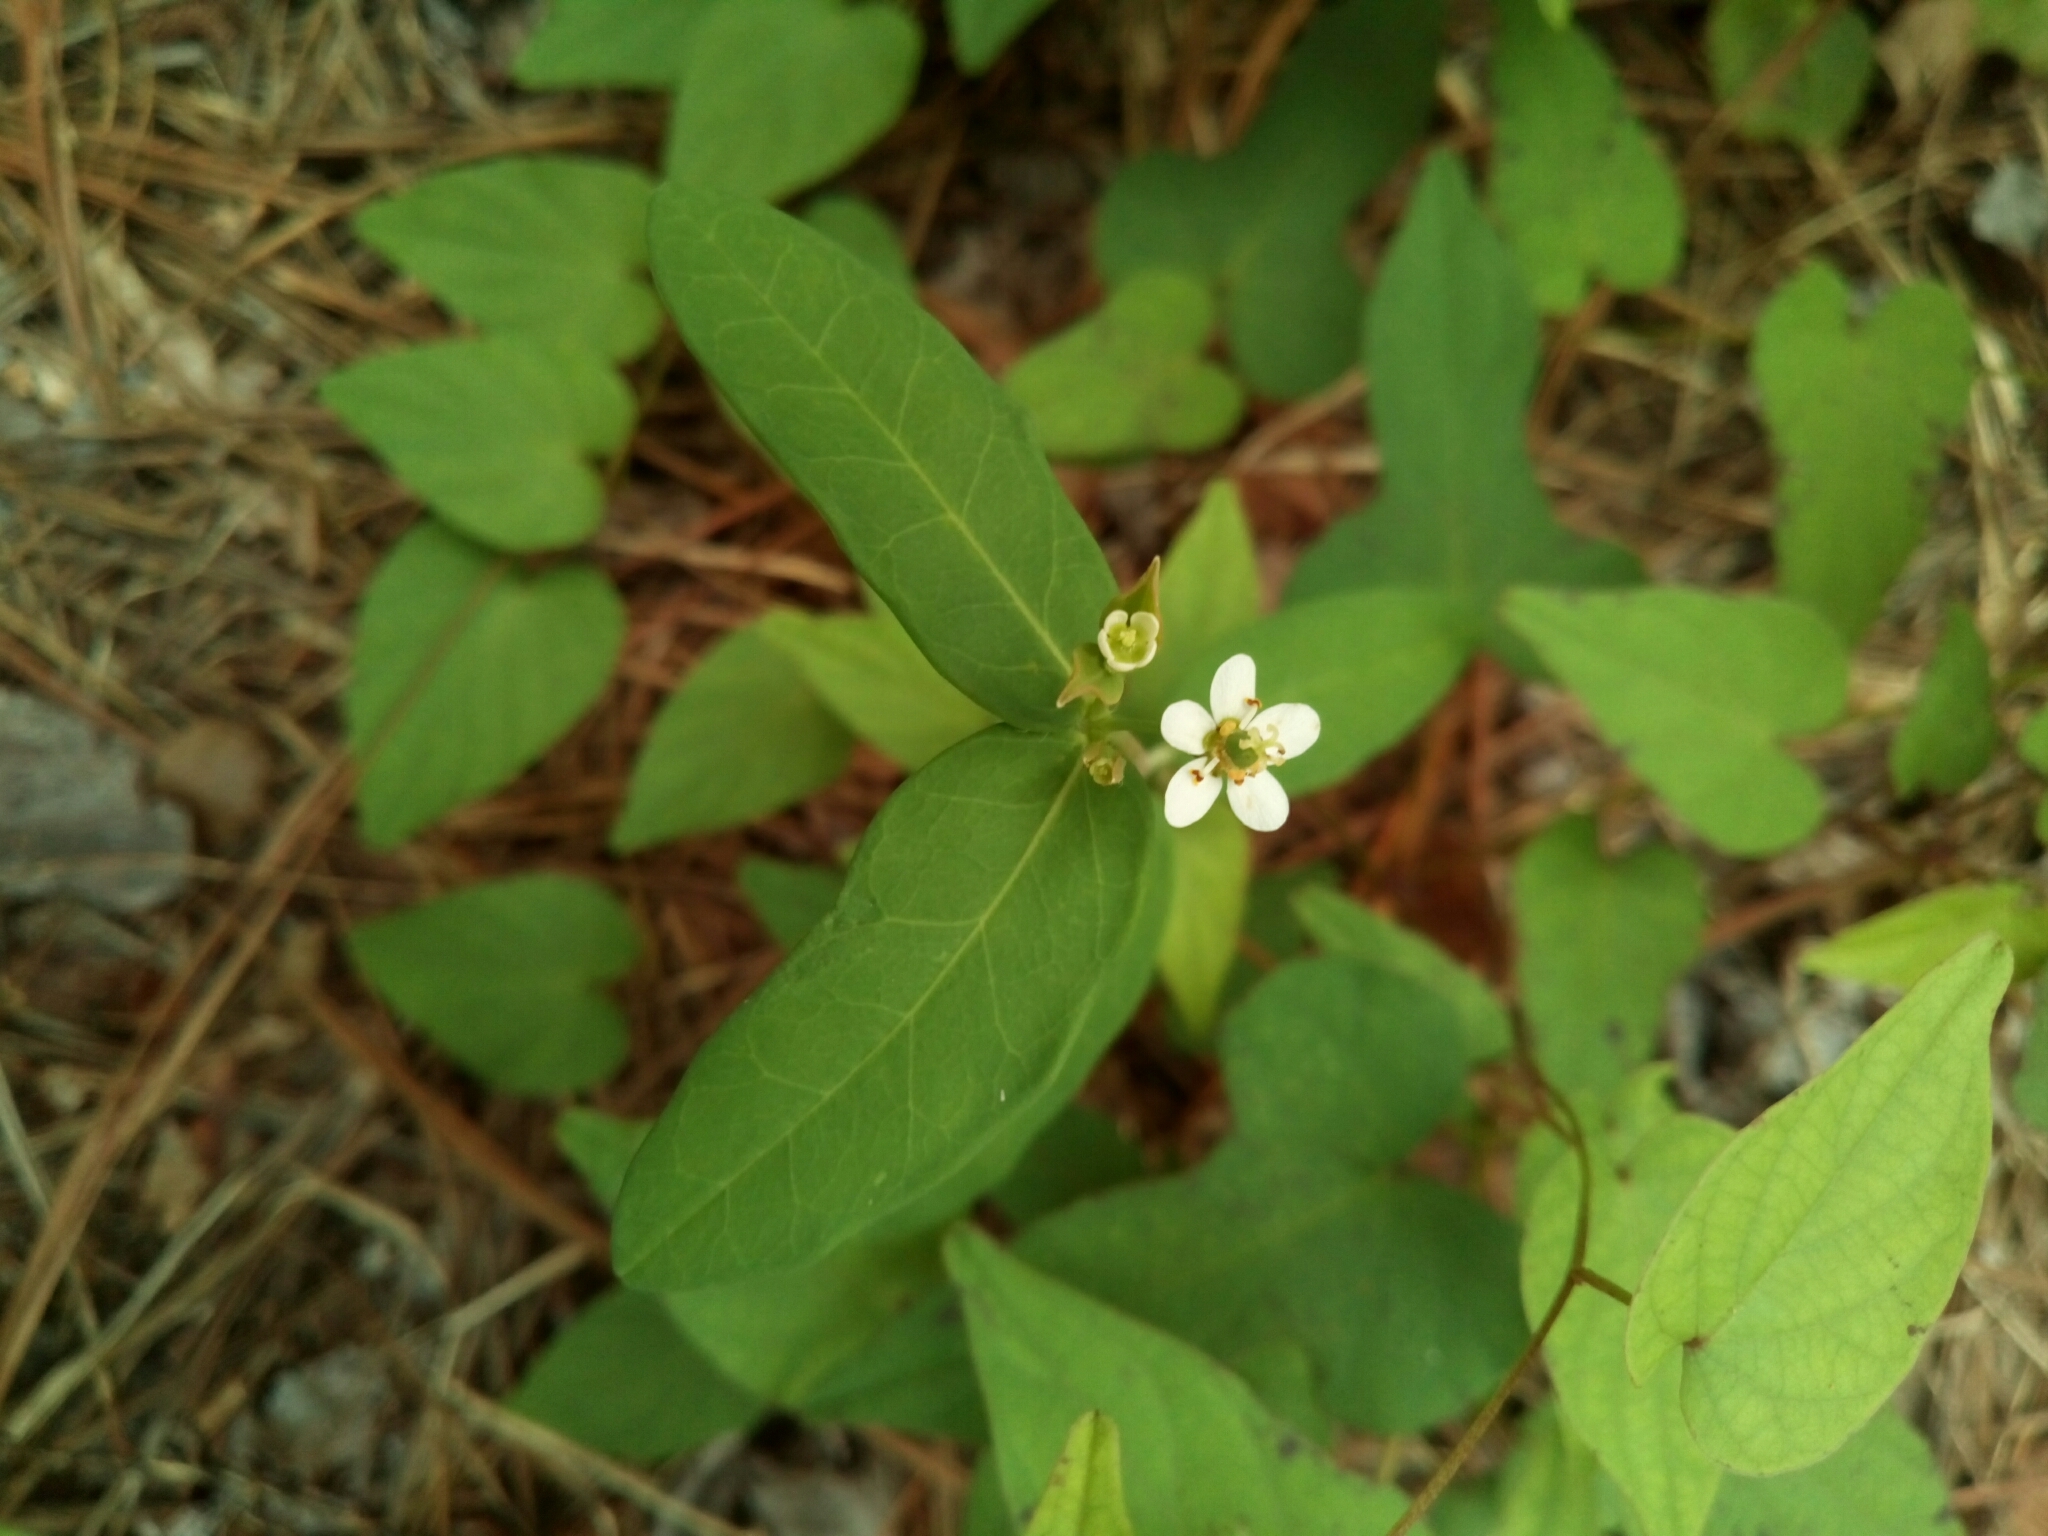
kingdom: Plantae
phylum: Tracheophyta
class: Magnoliopsida
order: Malpighiales
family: Euphorbiaceae
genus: Euphorbia
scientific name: Euphorbia corollata
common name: Flowering spurge
